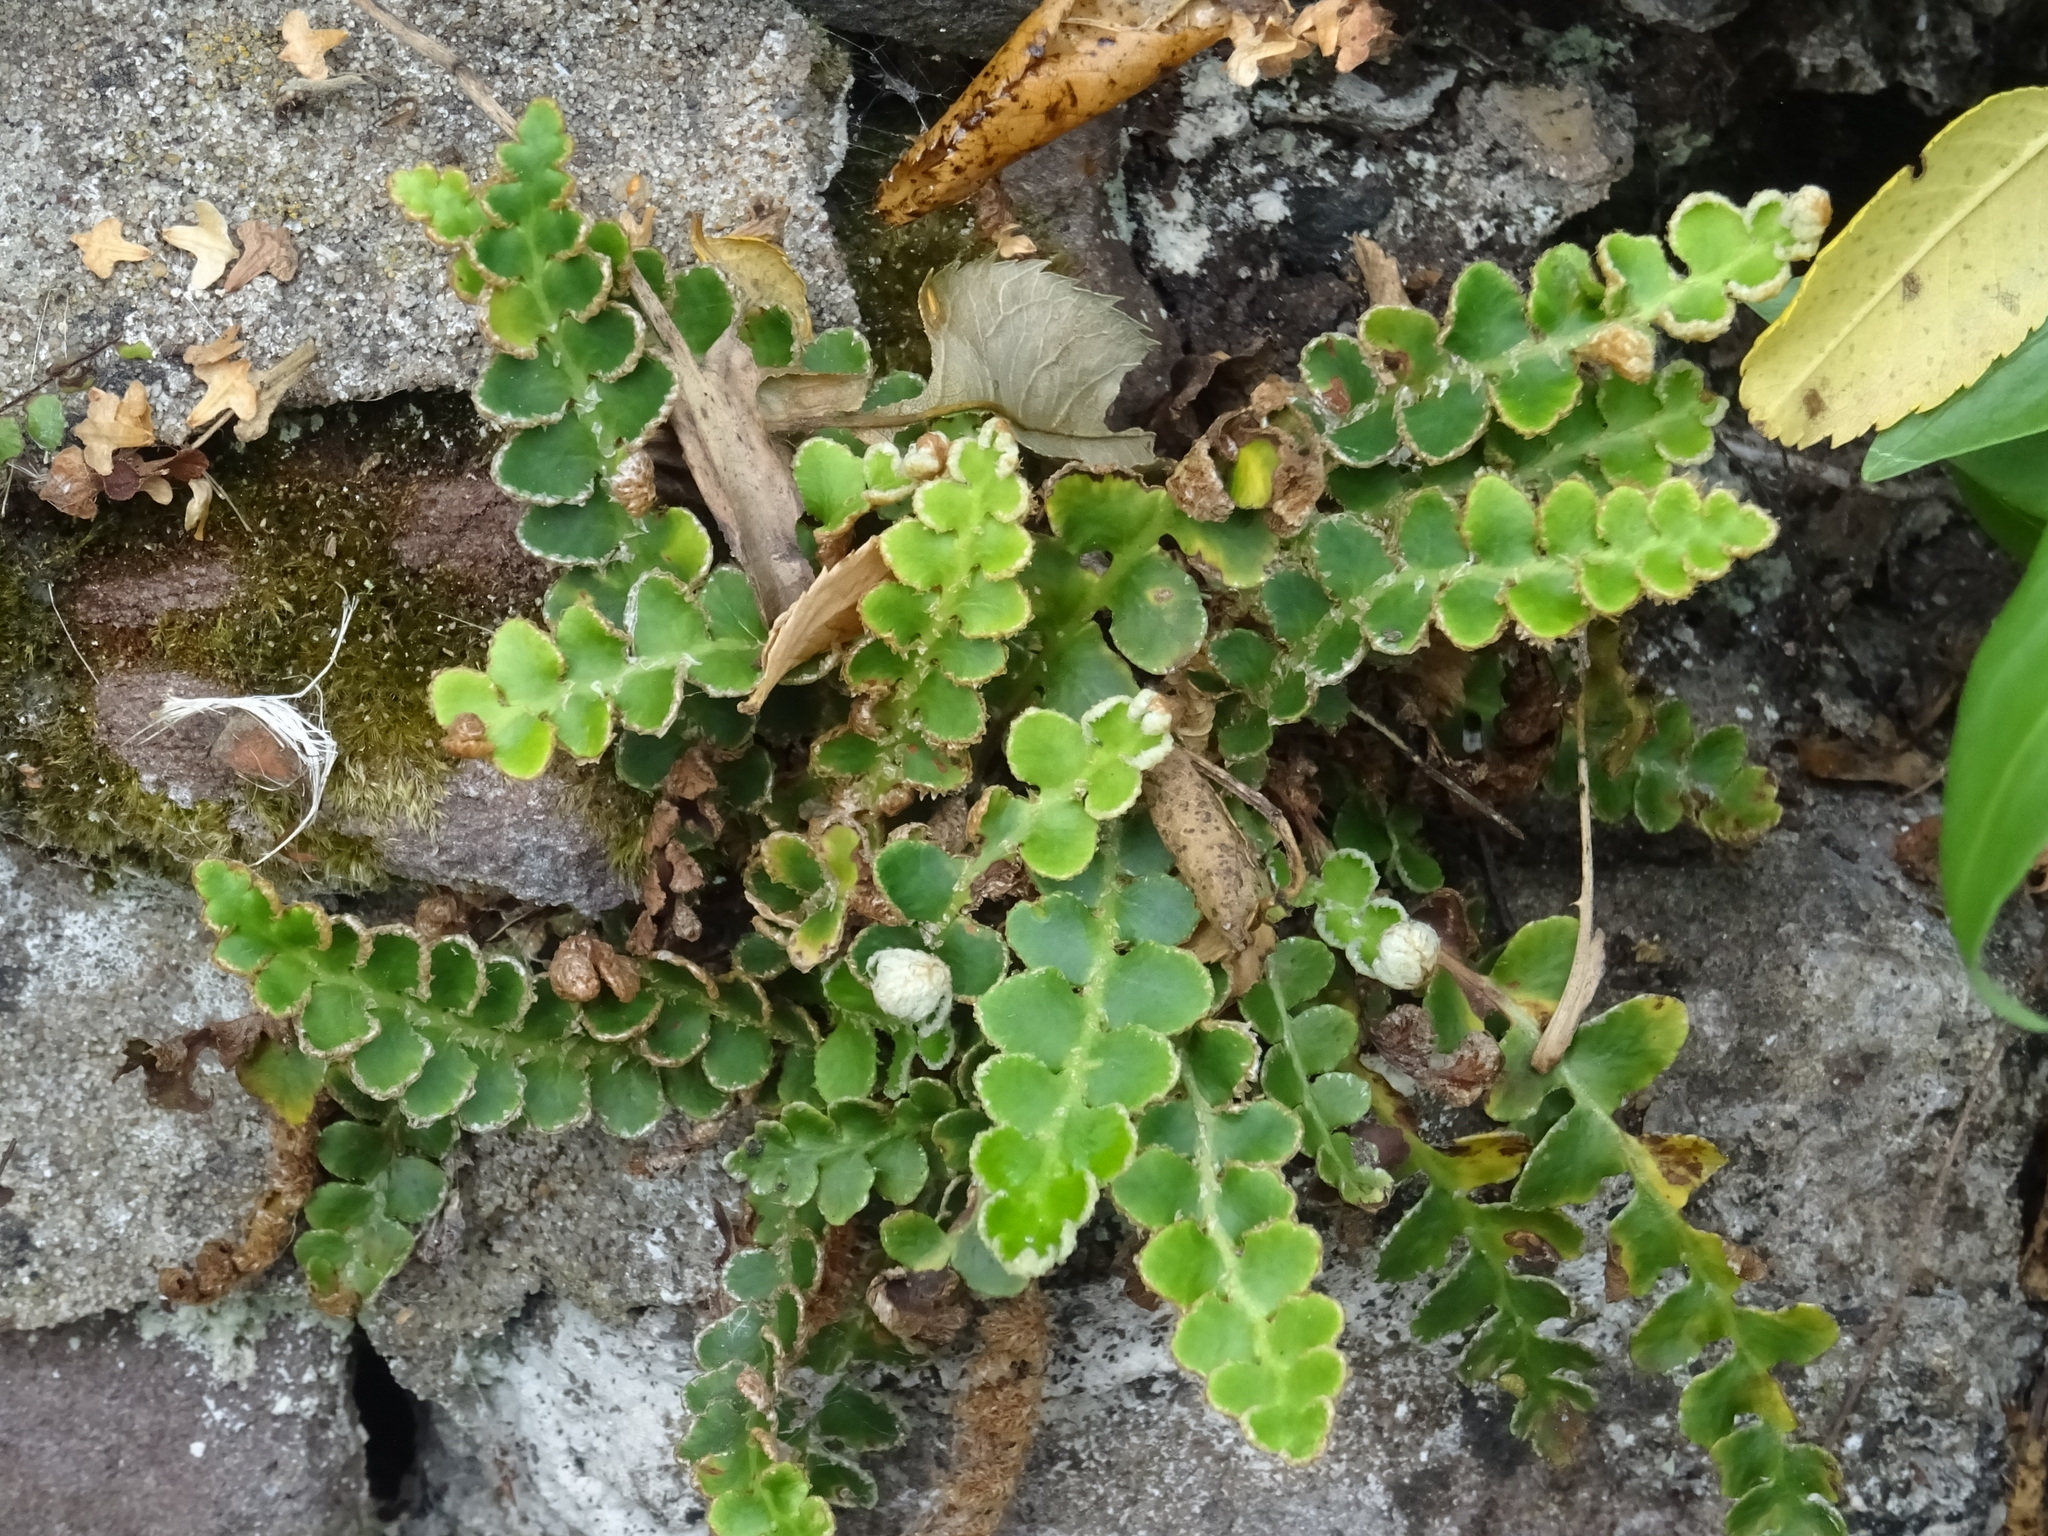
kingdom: Plantae
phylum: Tracheophyta
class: Polypodiopsida
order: Polypodiales
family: Aspleniaceae
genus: Asplenium
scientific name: Asplenium ceterach
